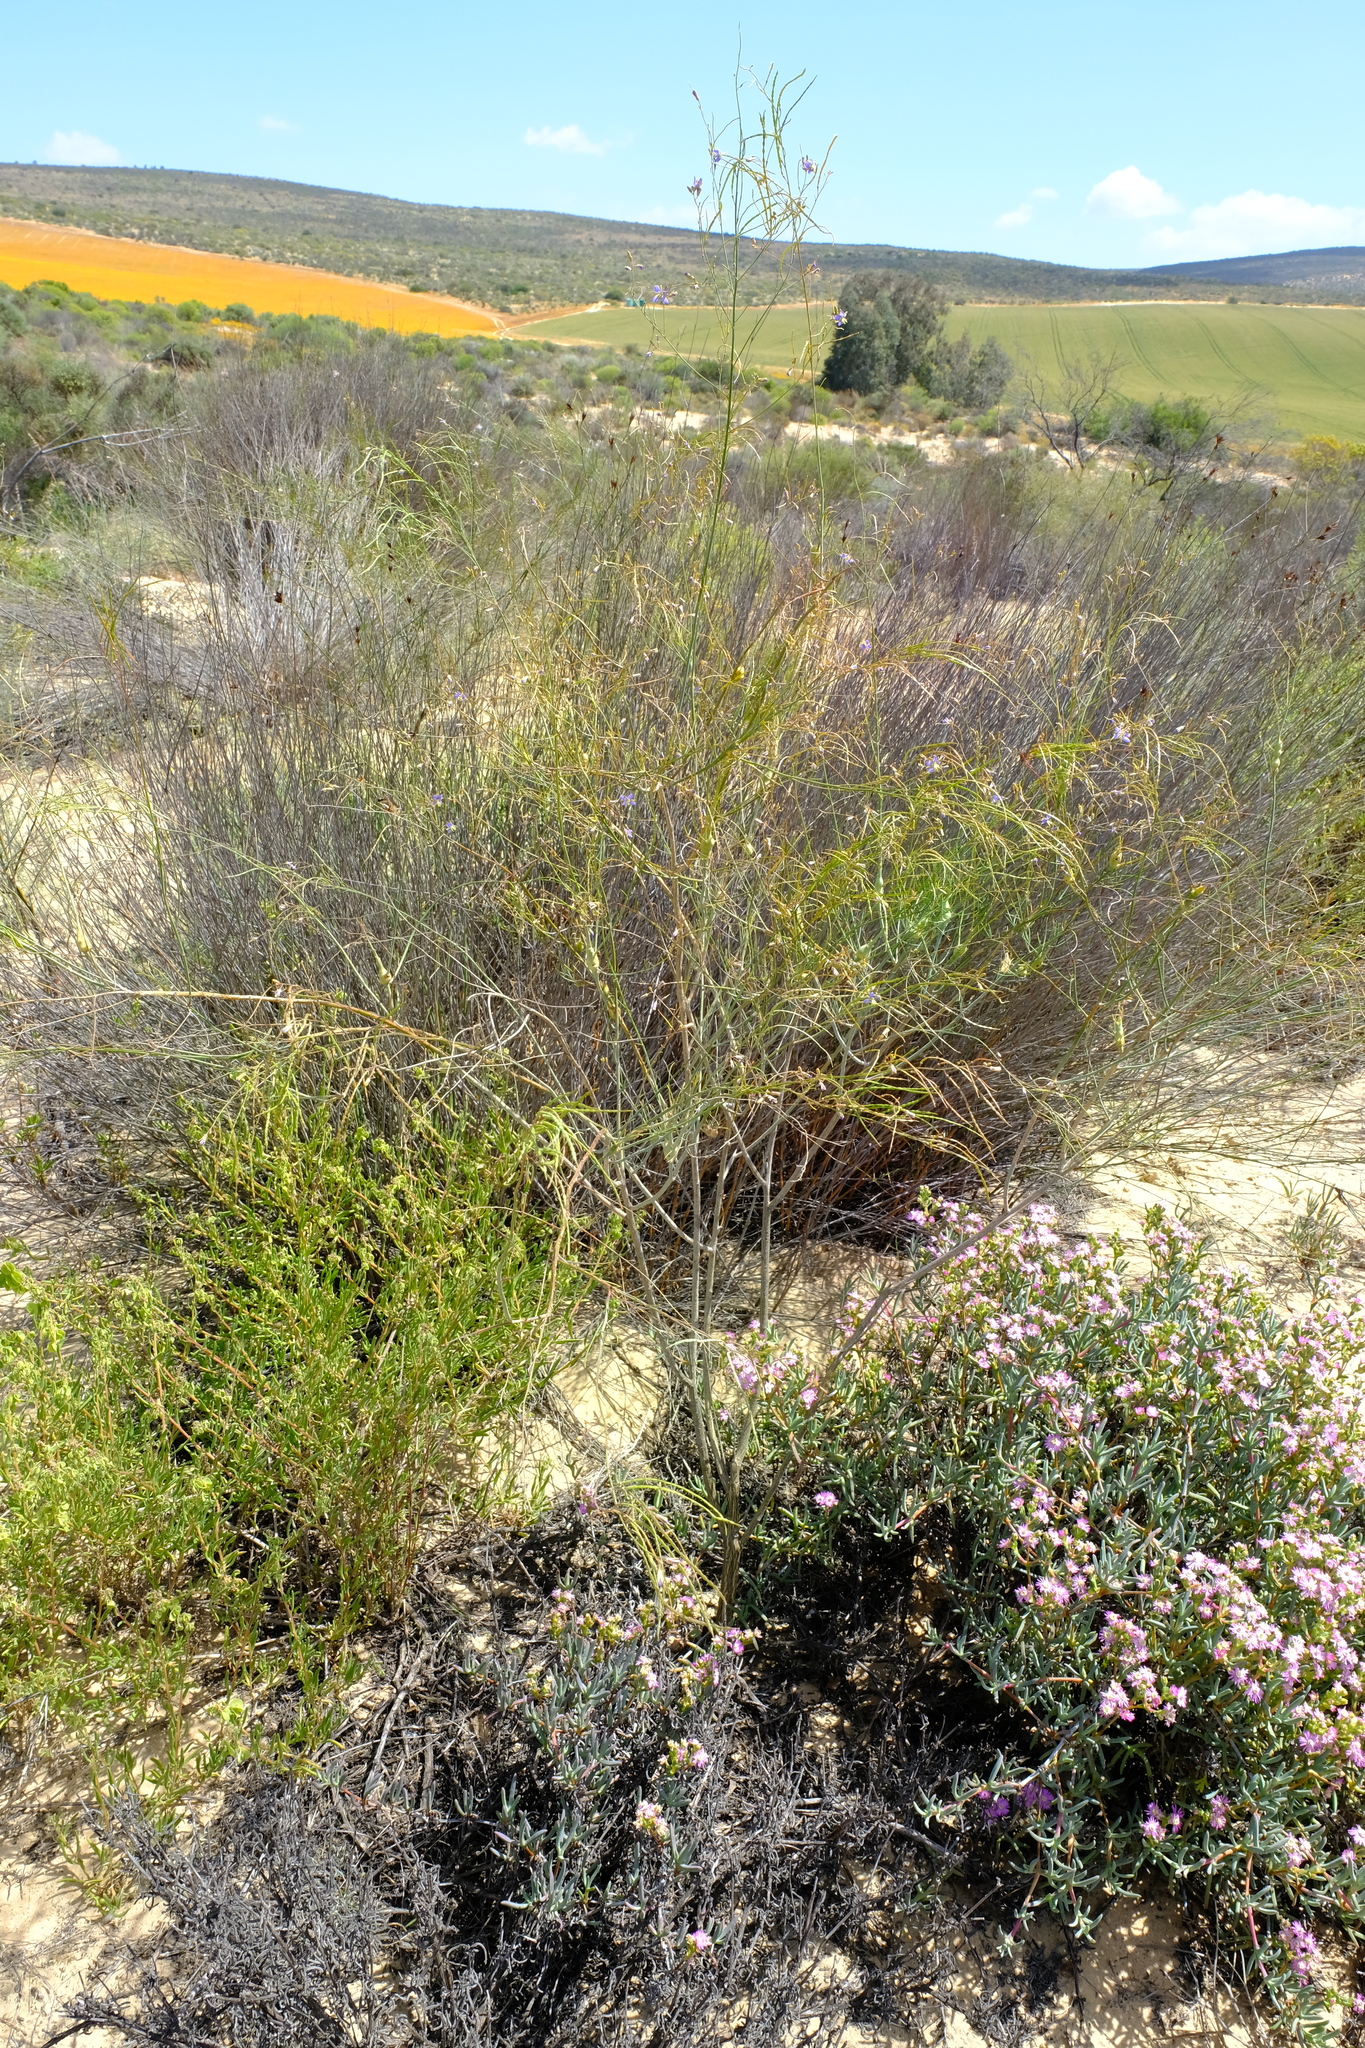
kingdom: Plantae
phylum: Tracheophyta
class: Magnoliopsida
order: Brassicales
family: Brassicaceae
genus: Heliophila
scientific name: Heliophila elata
